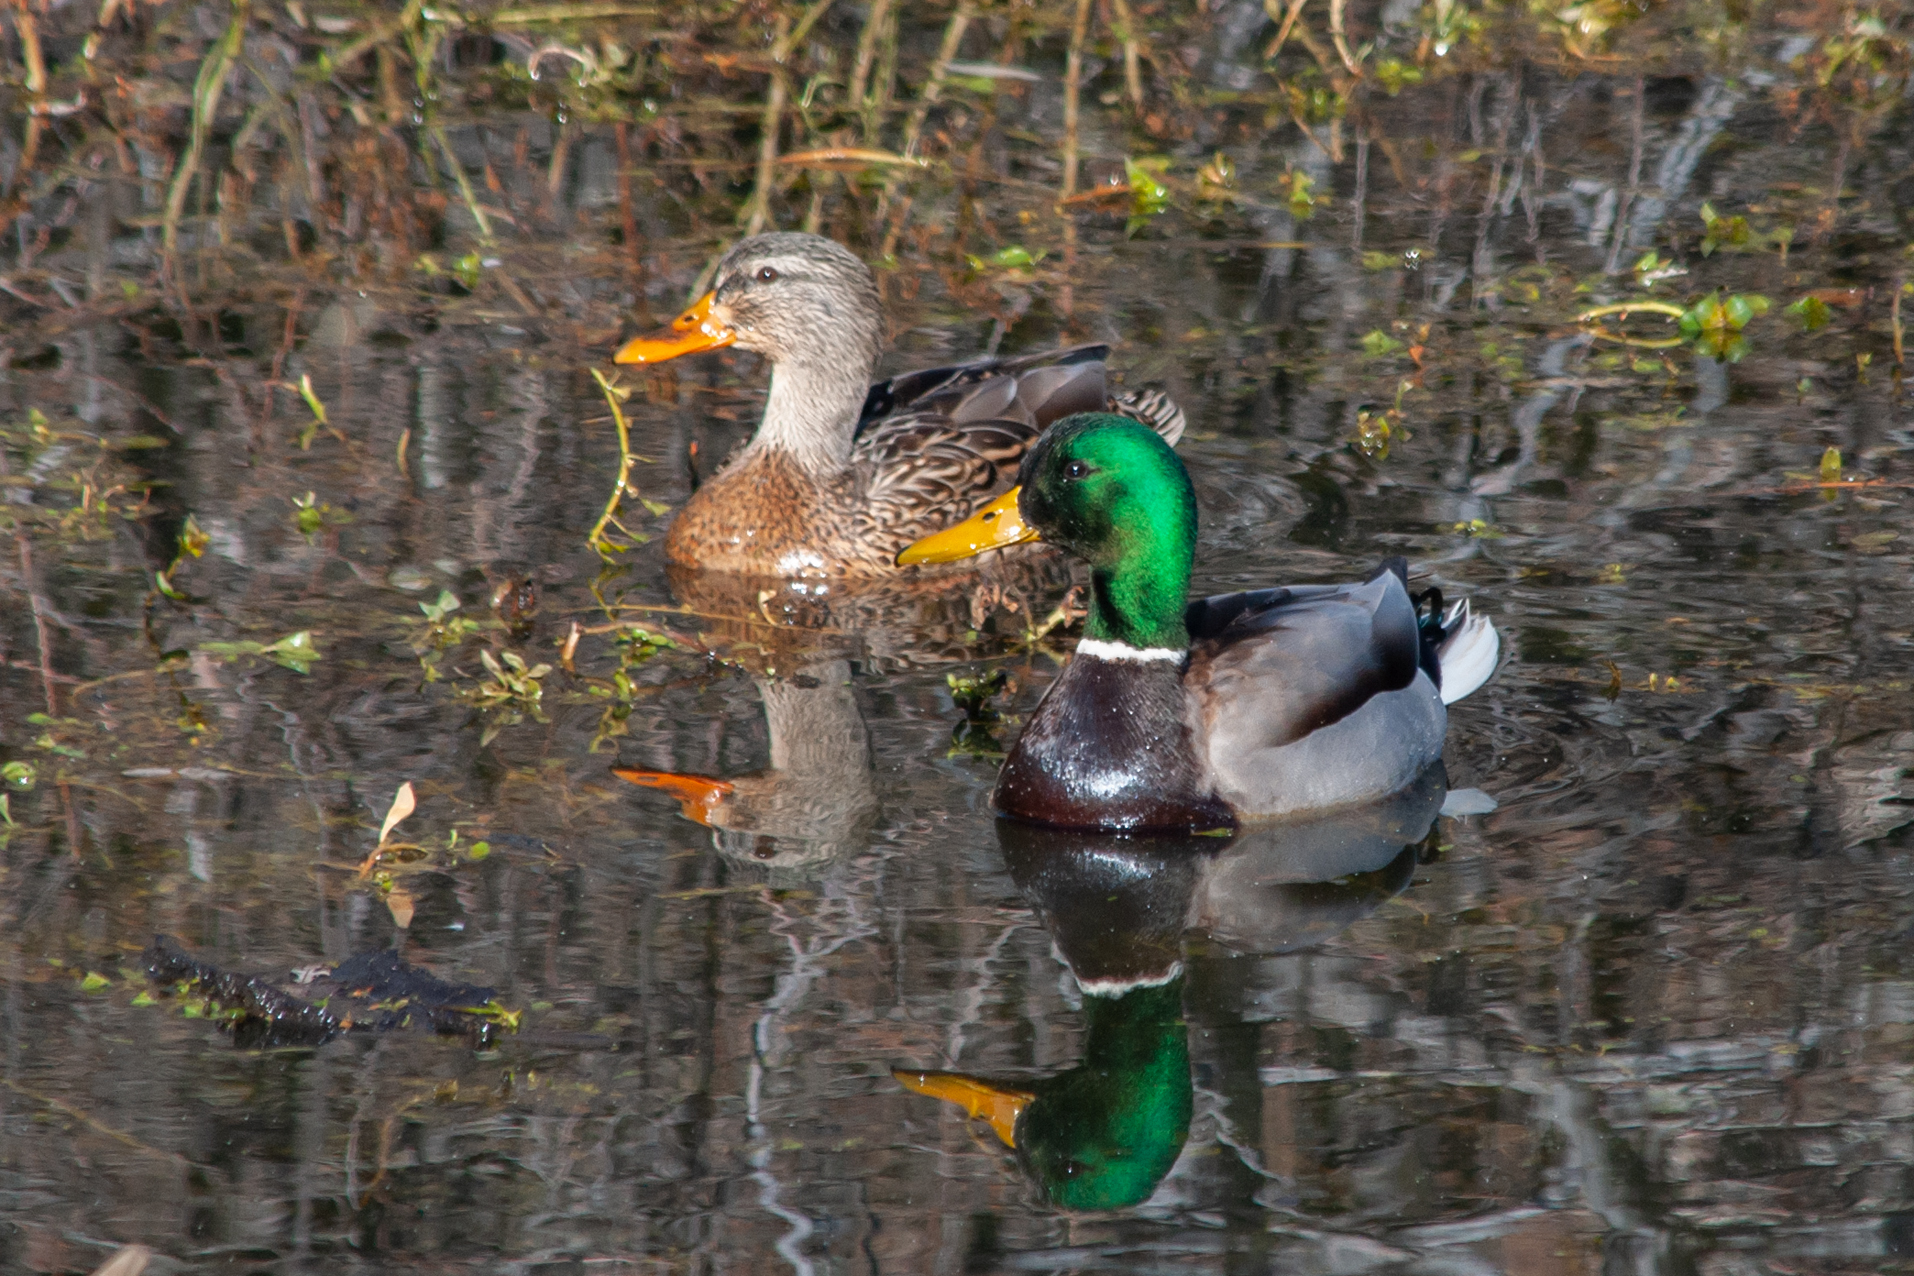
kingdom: Animalia
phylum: Chordata
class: Aves
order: Anseriformes
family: Anatidae
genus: Anas
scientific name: Anas platyrhynchos
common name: Mallard
